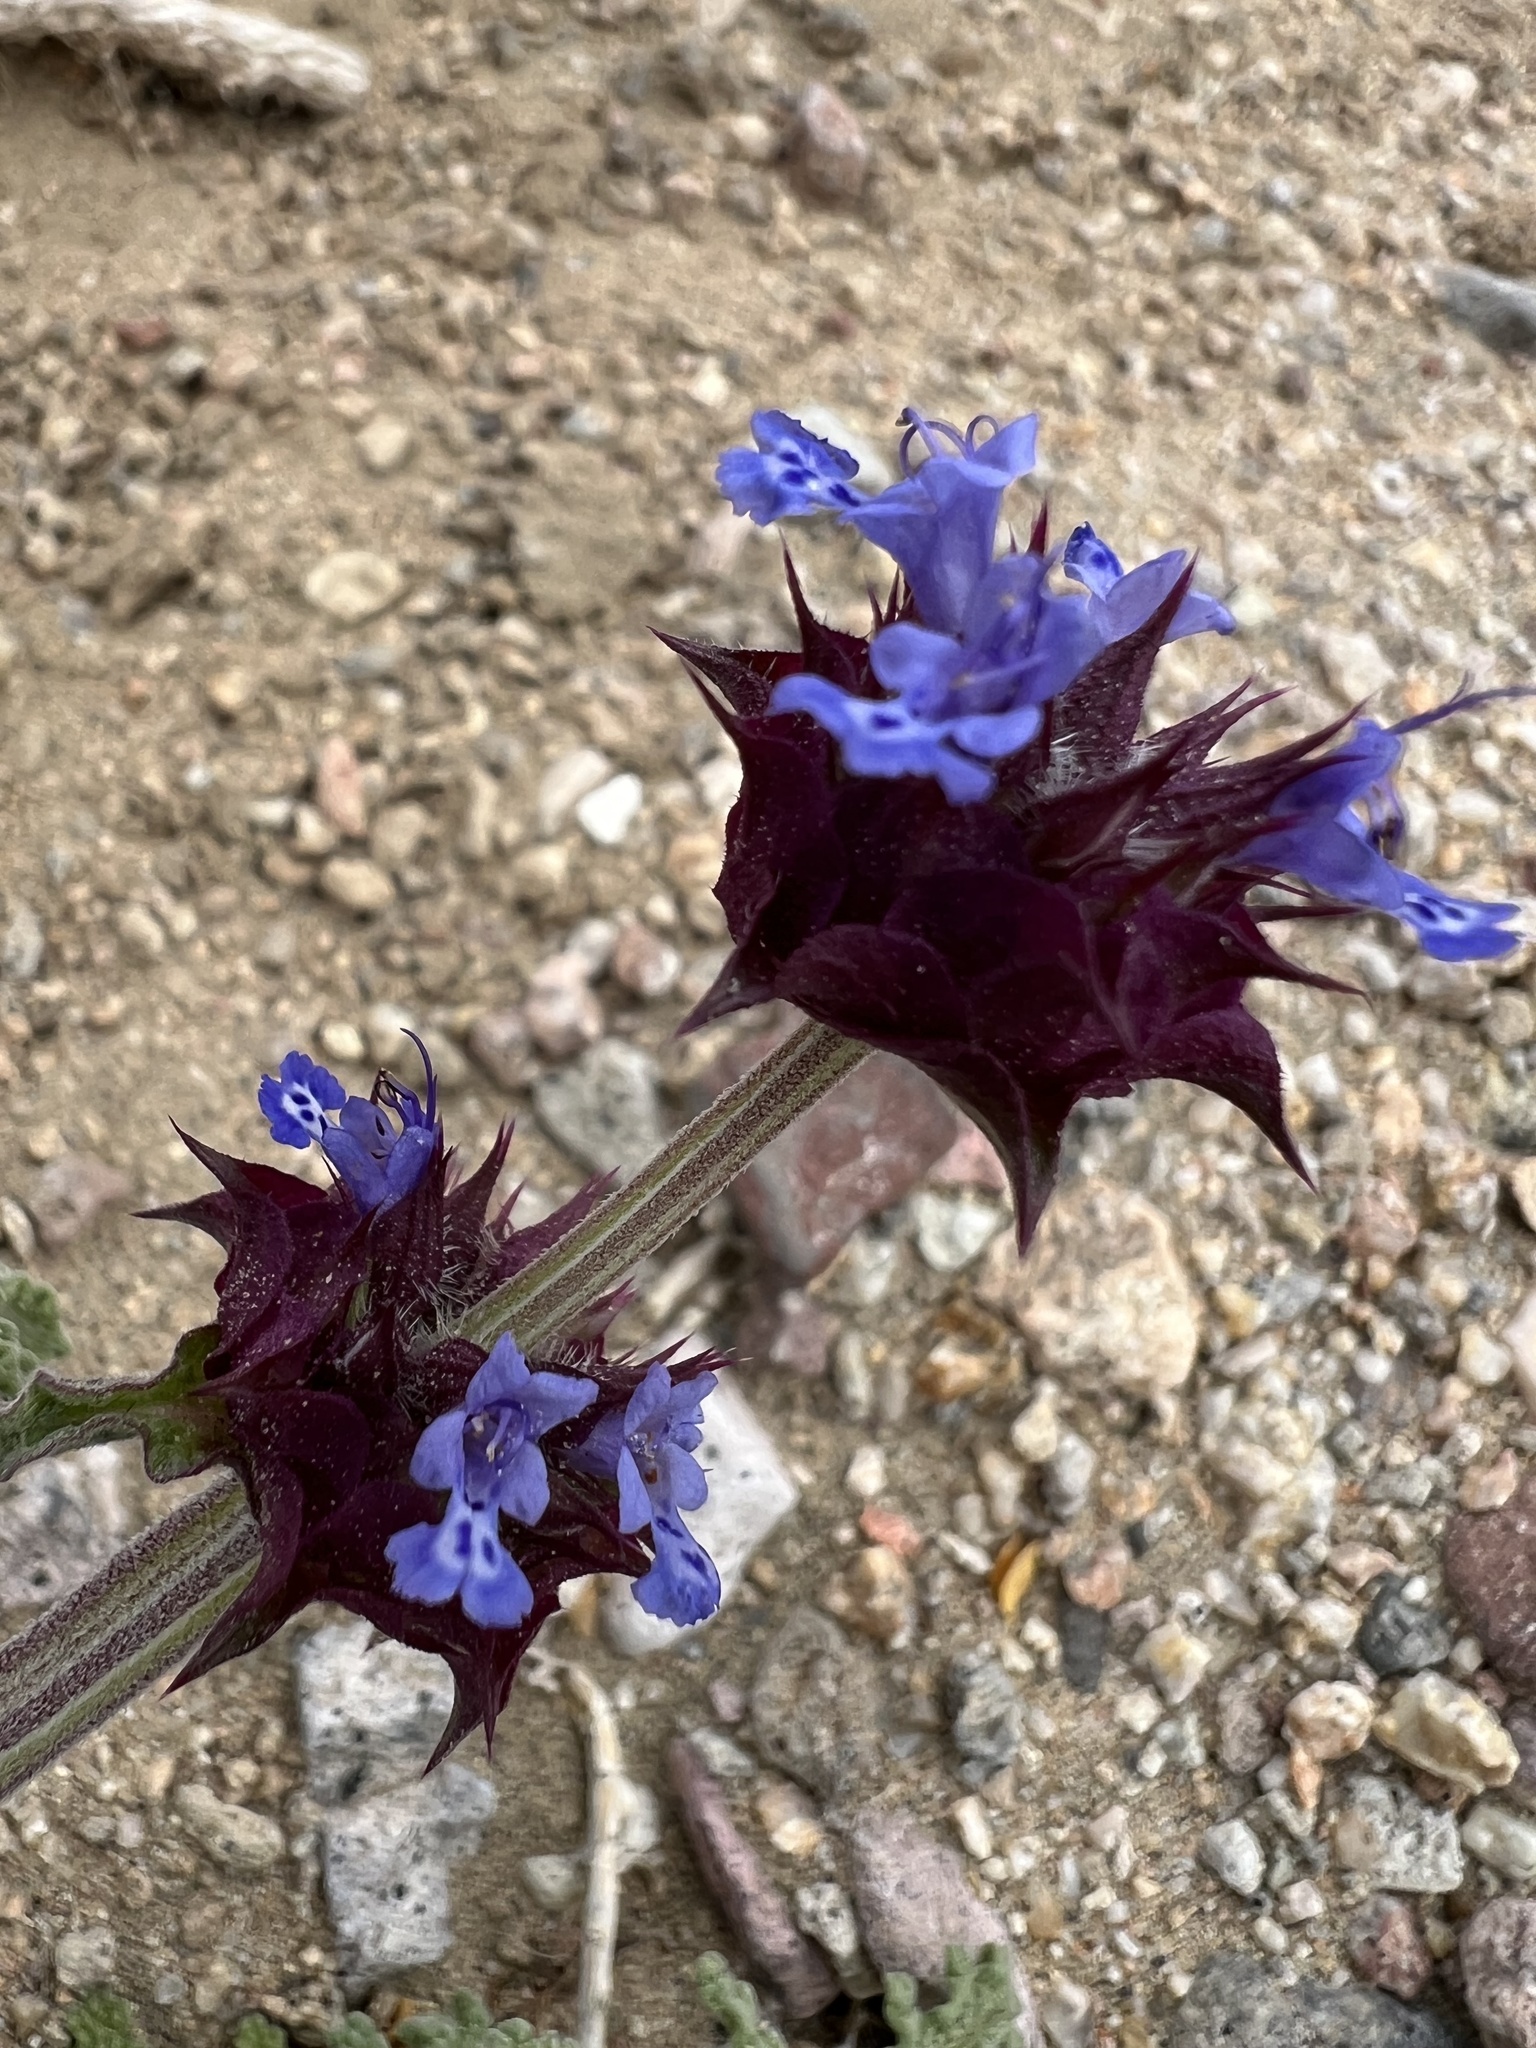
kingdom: Plantae
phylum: Tracheophyta
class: Magnoliopsida
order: Lamiales
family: Lamiaceae
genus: Salvia
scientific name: Salvia columbariae
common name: Chia
